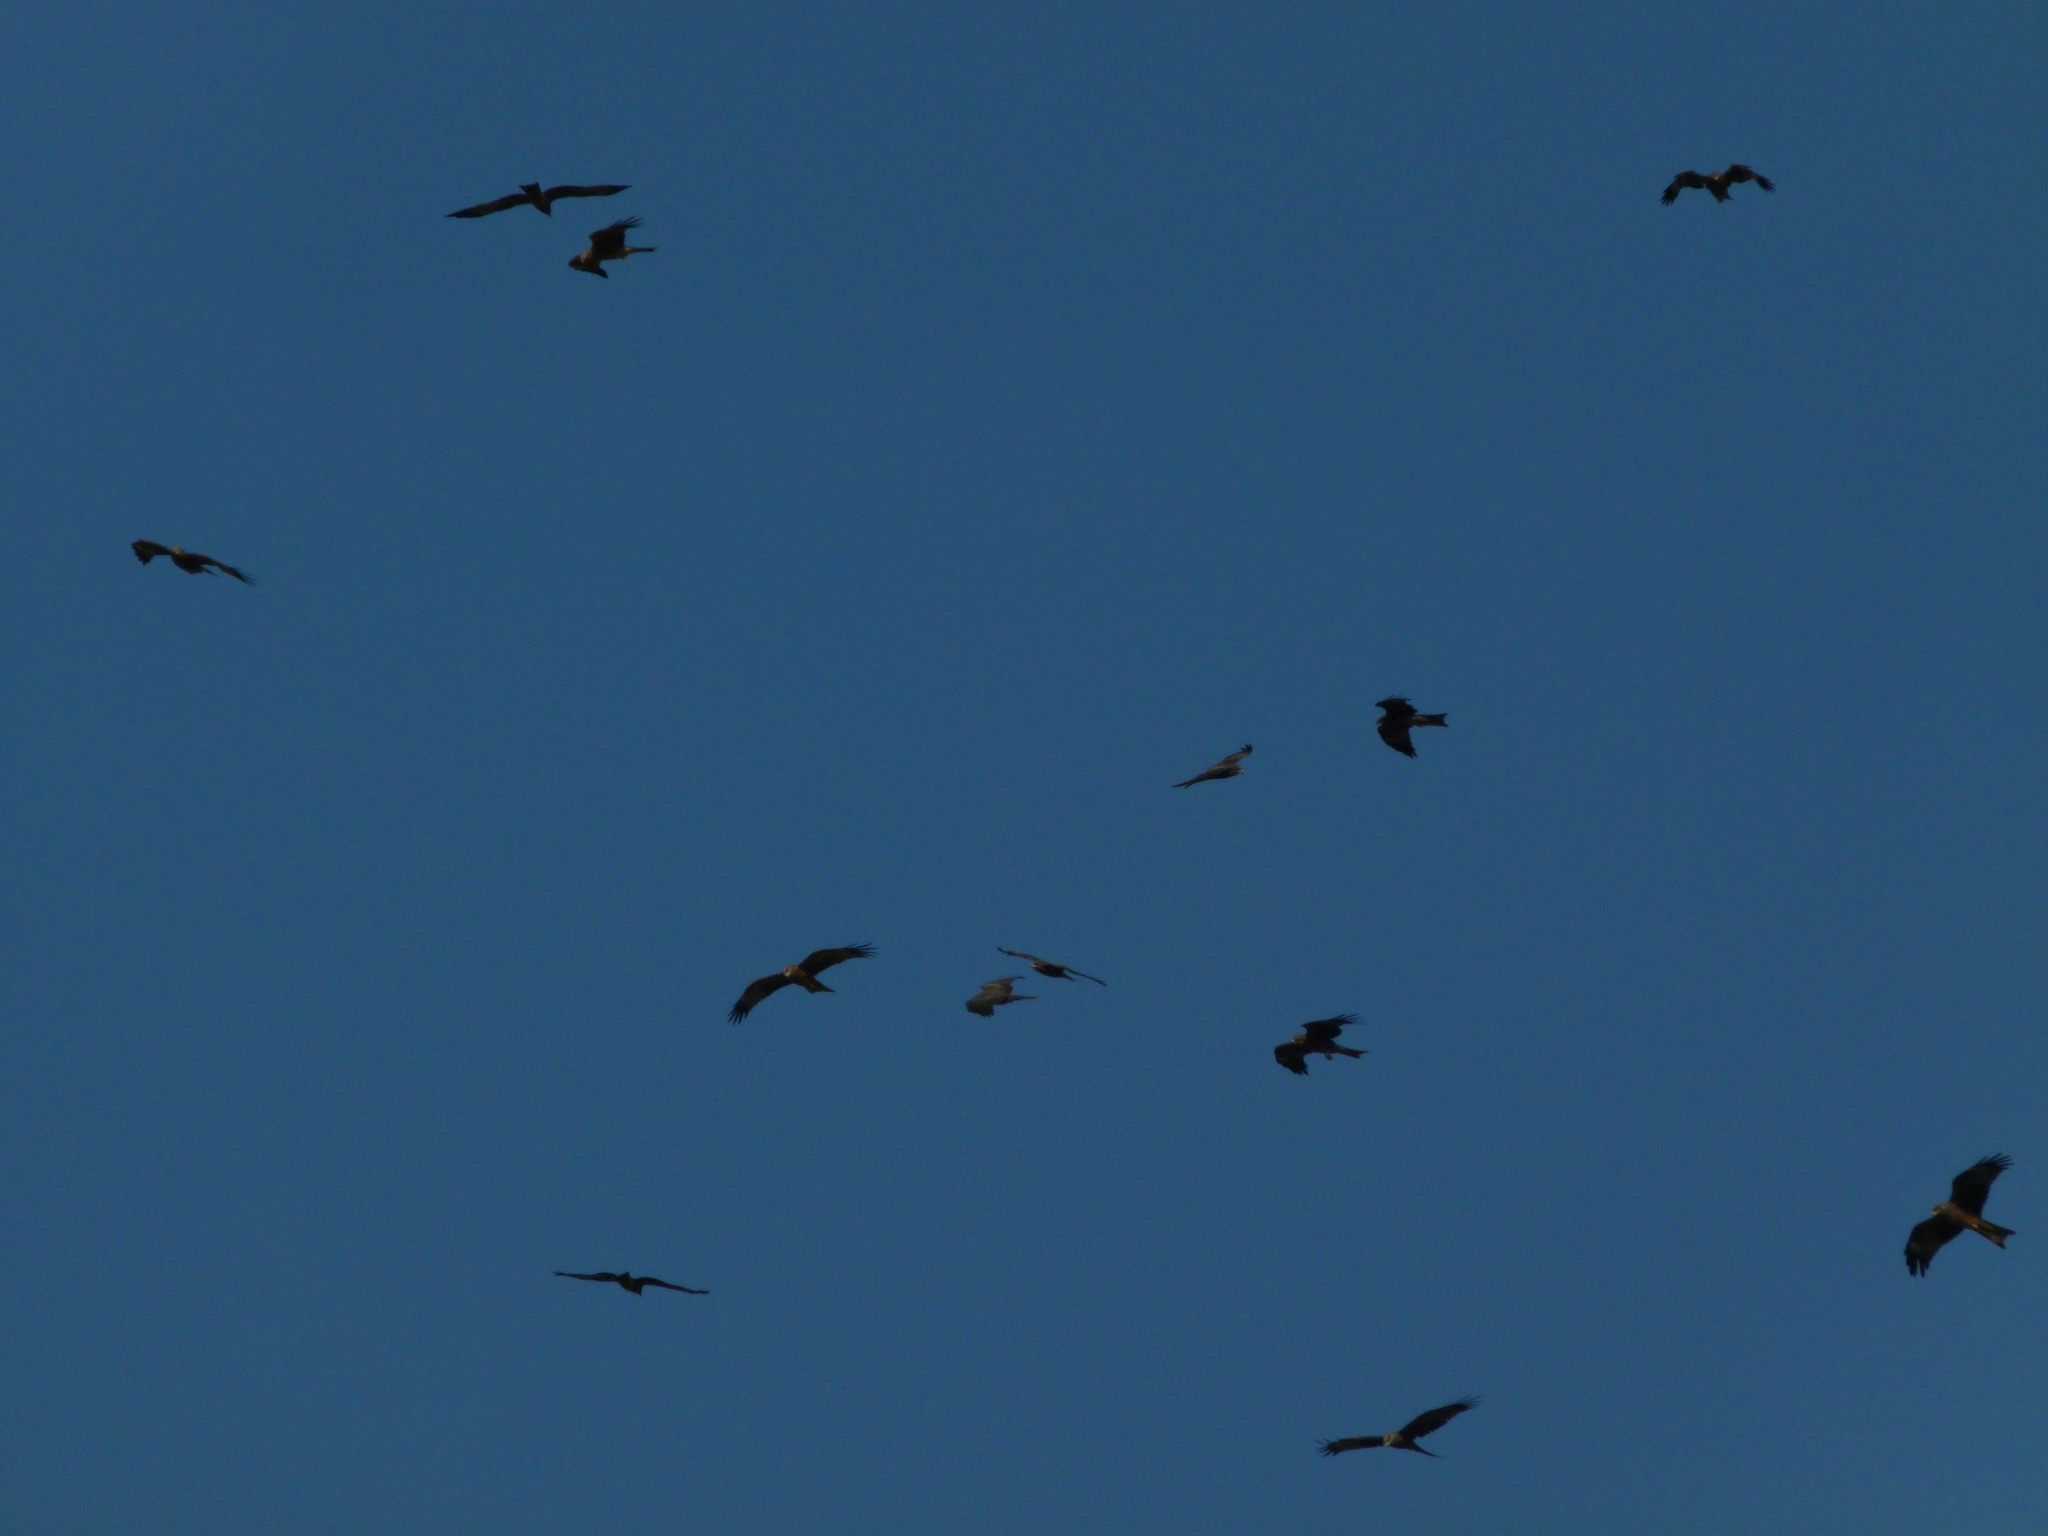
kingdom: Animalia
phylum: Chordata
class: Aves
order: Accipitriformes
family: Accipitridae
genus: Milvus
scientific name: Milvus migrans
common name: Black kite
